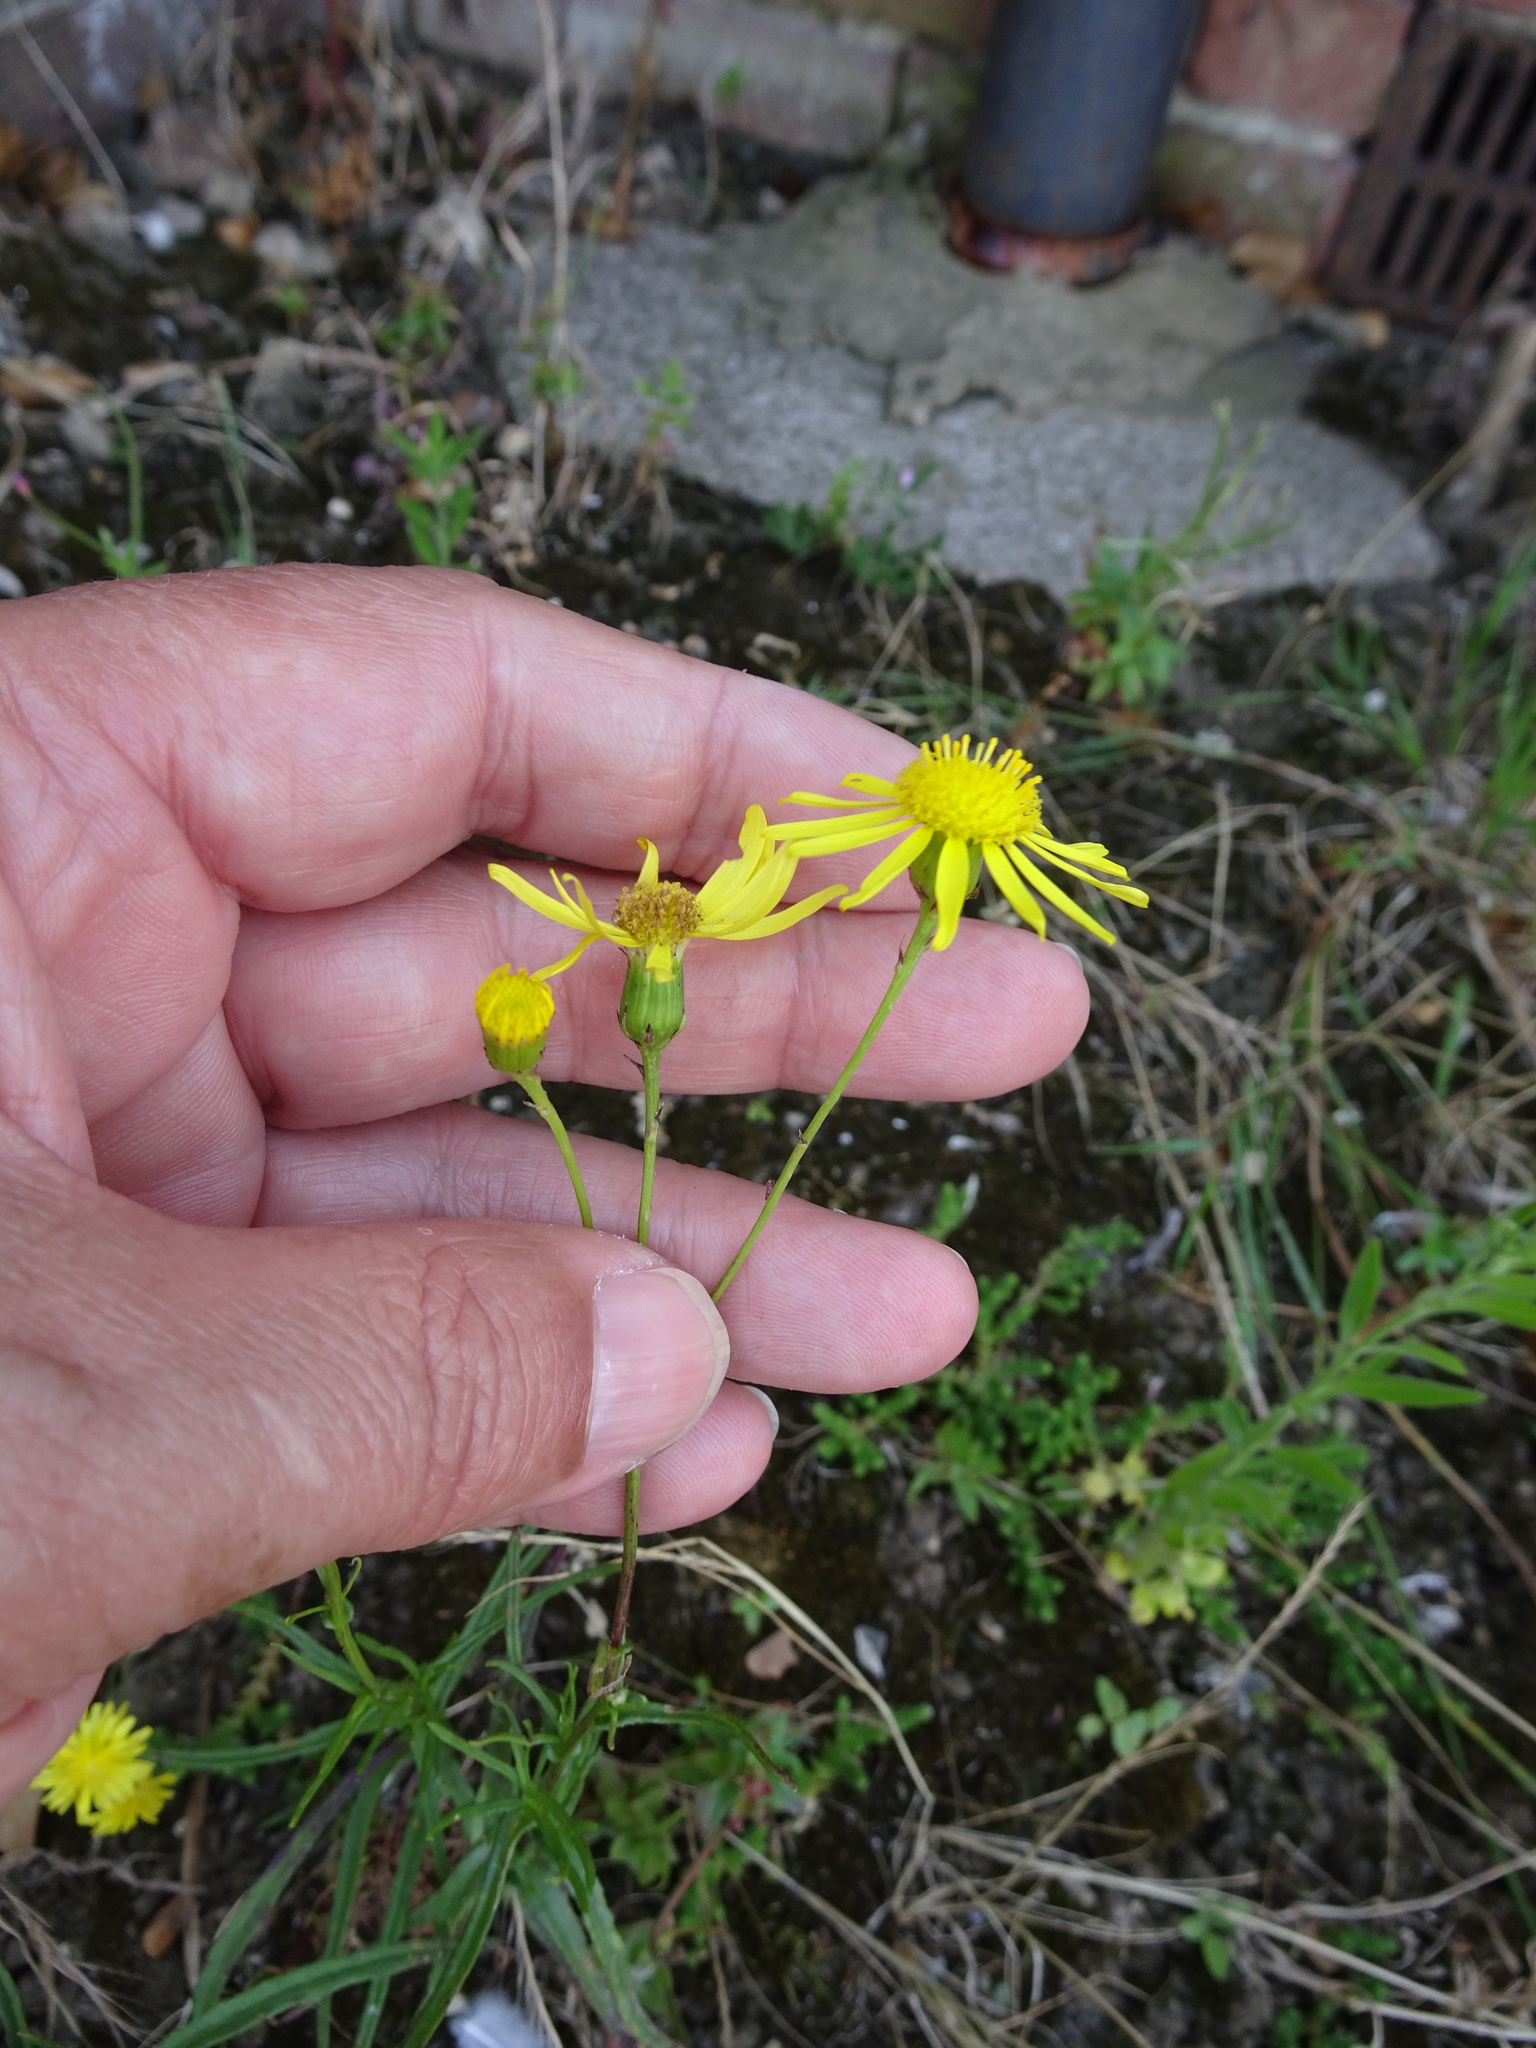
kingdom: Plantae
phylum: Tracheophyta
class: Magnoliopsida
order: Asterales
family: Asteraceae
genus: Senecio
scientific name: Senecio inaequidens
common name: Narrow-leaved ragwort
